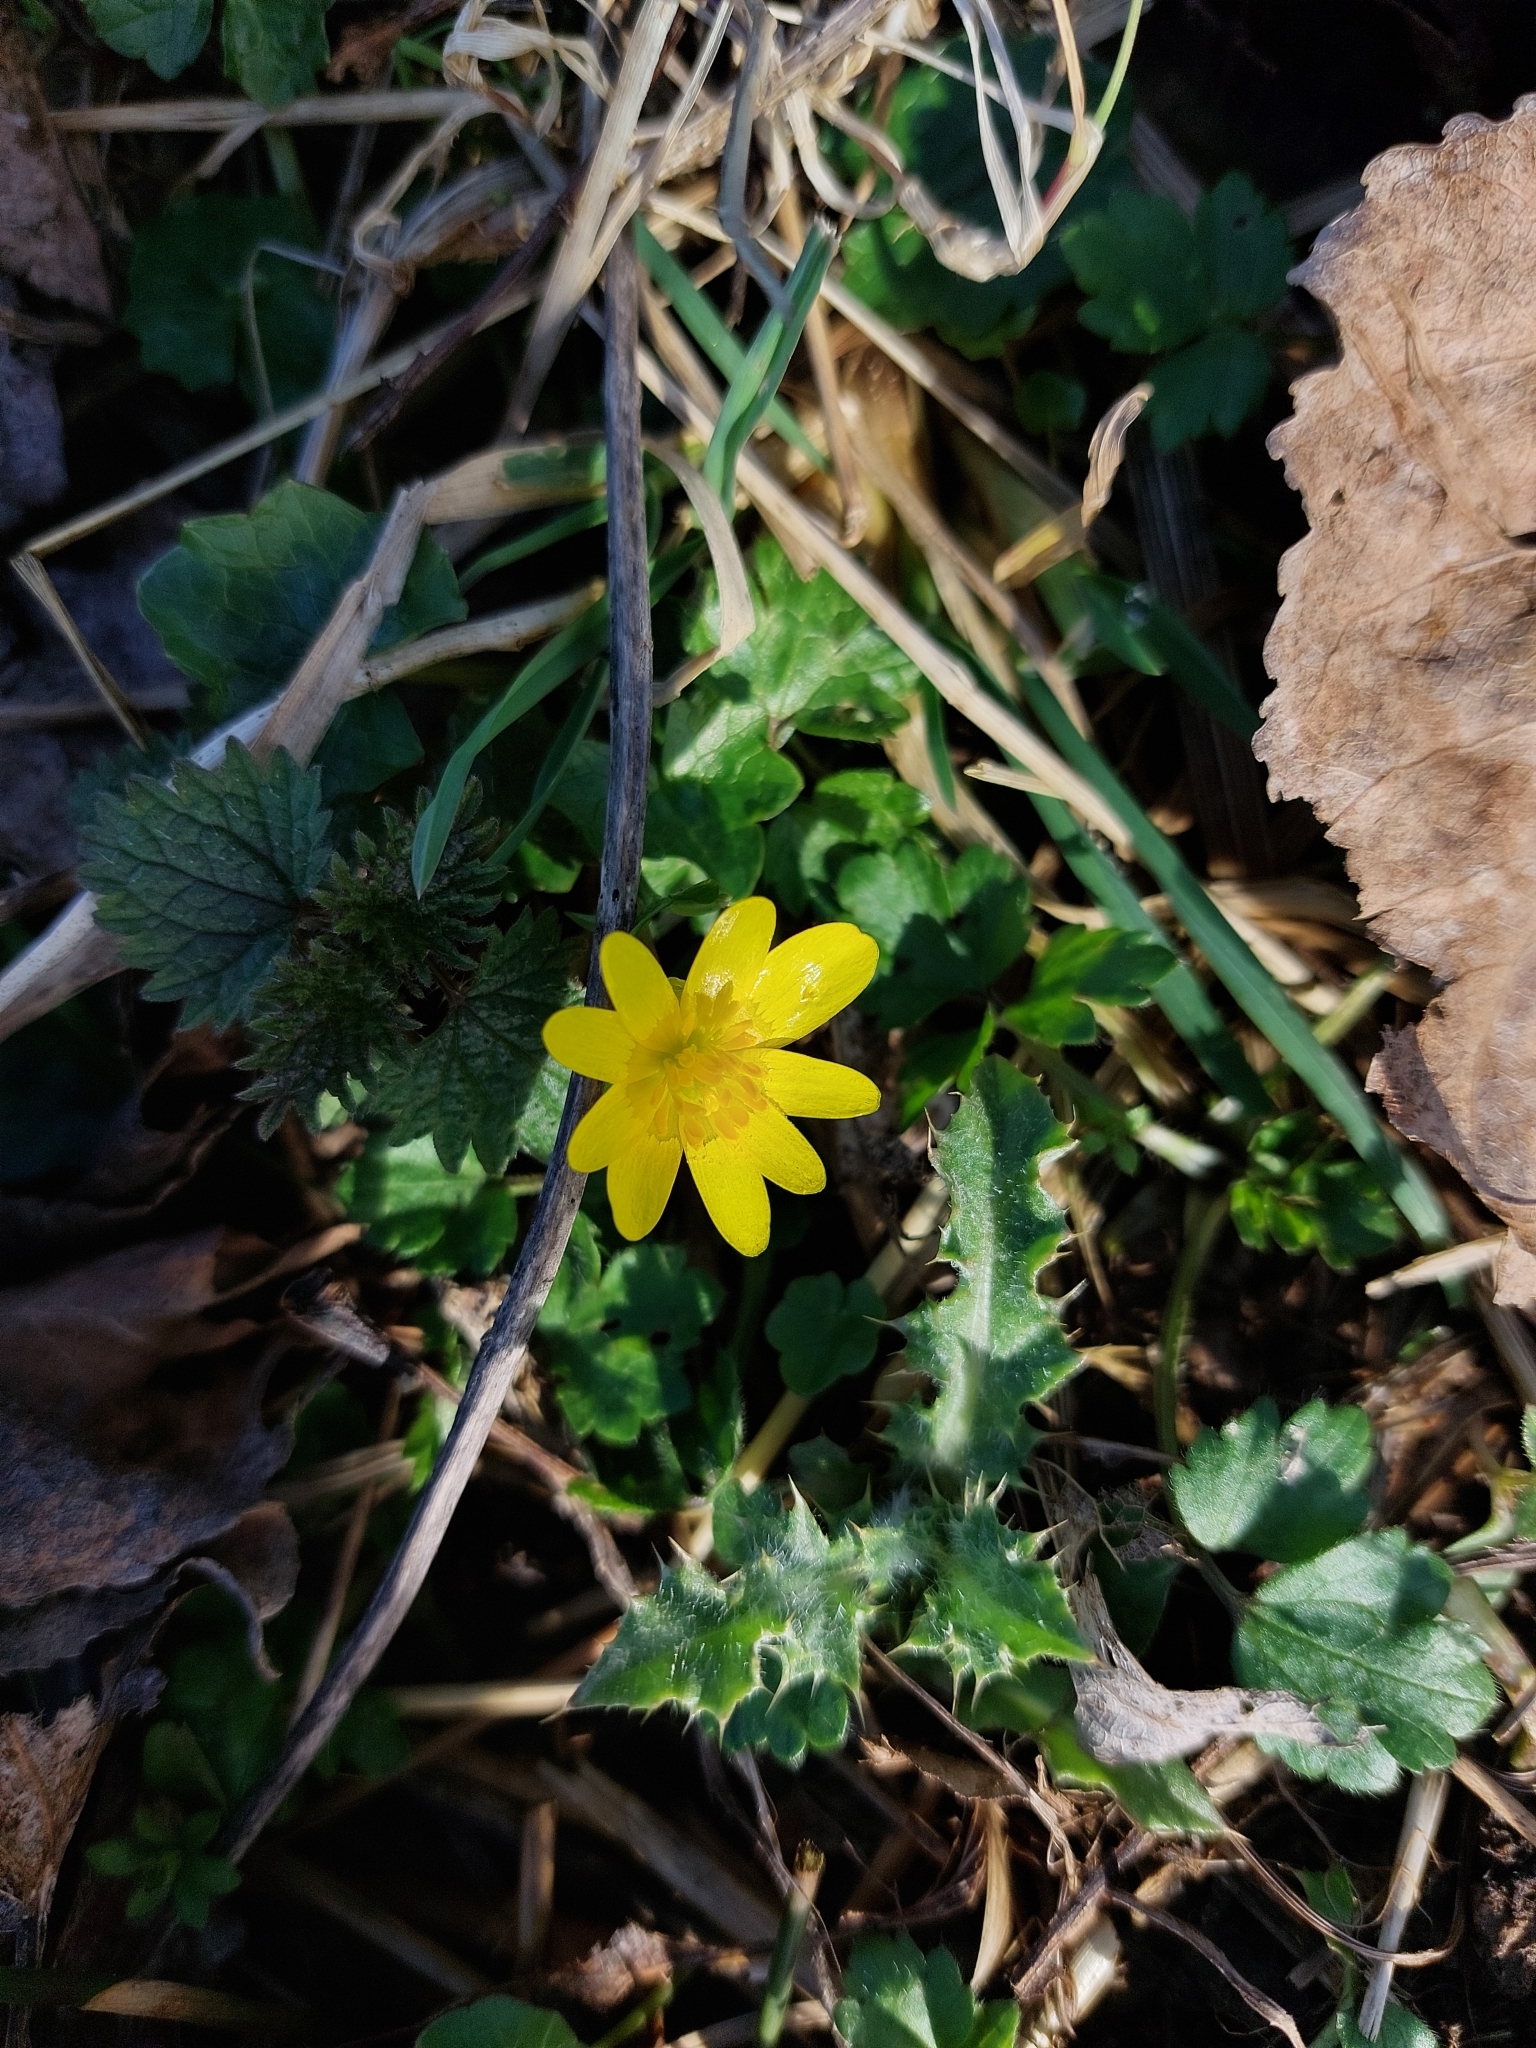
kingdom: Plantae
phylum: Tracheophyta
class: Magnoliopsida
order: Ranunculales
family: Ranunculaceae
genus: Ficaria
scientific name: Ficaria verna
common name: Lesser celandine
